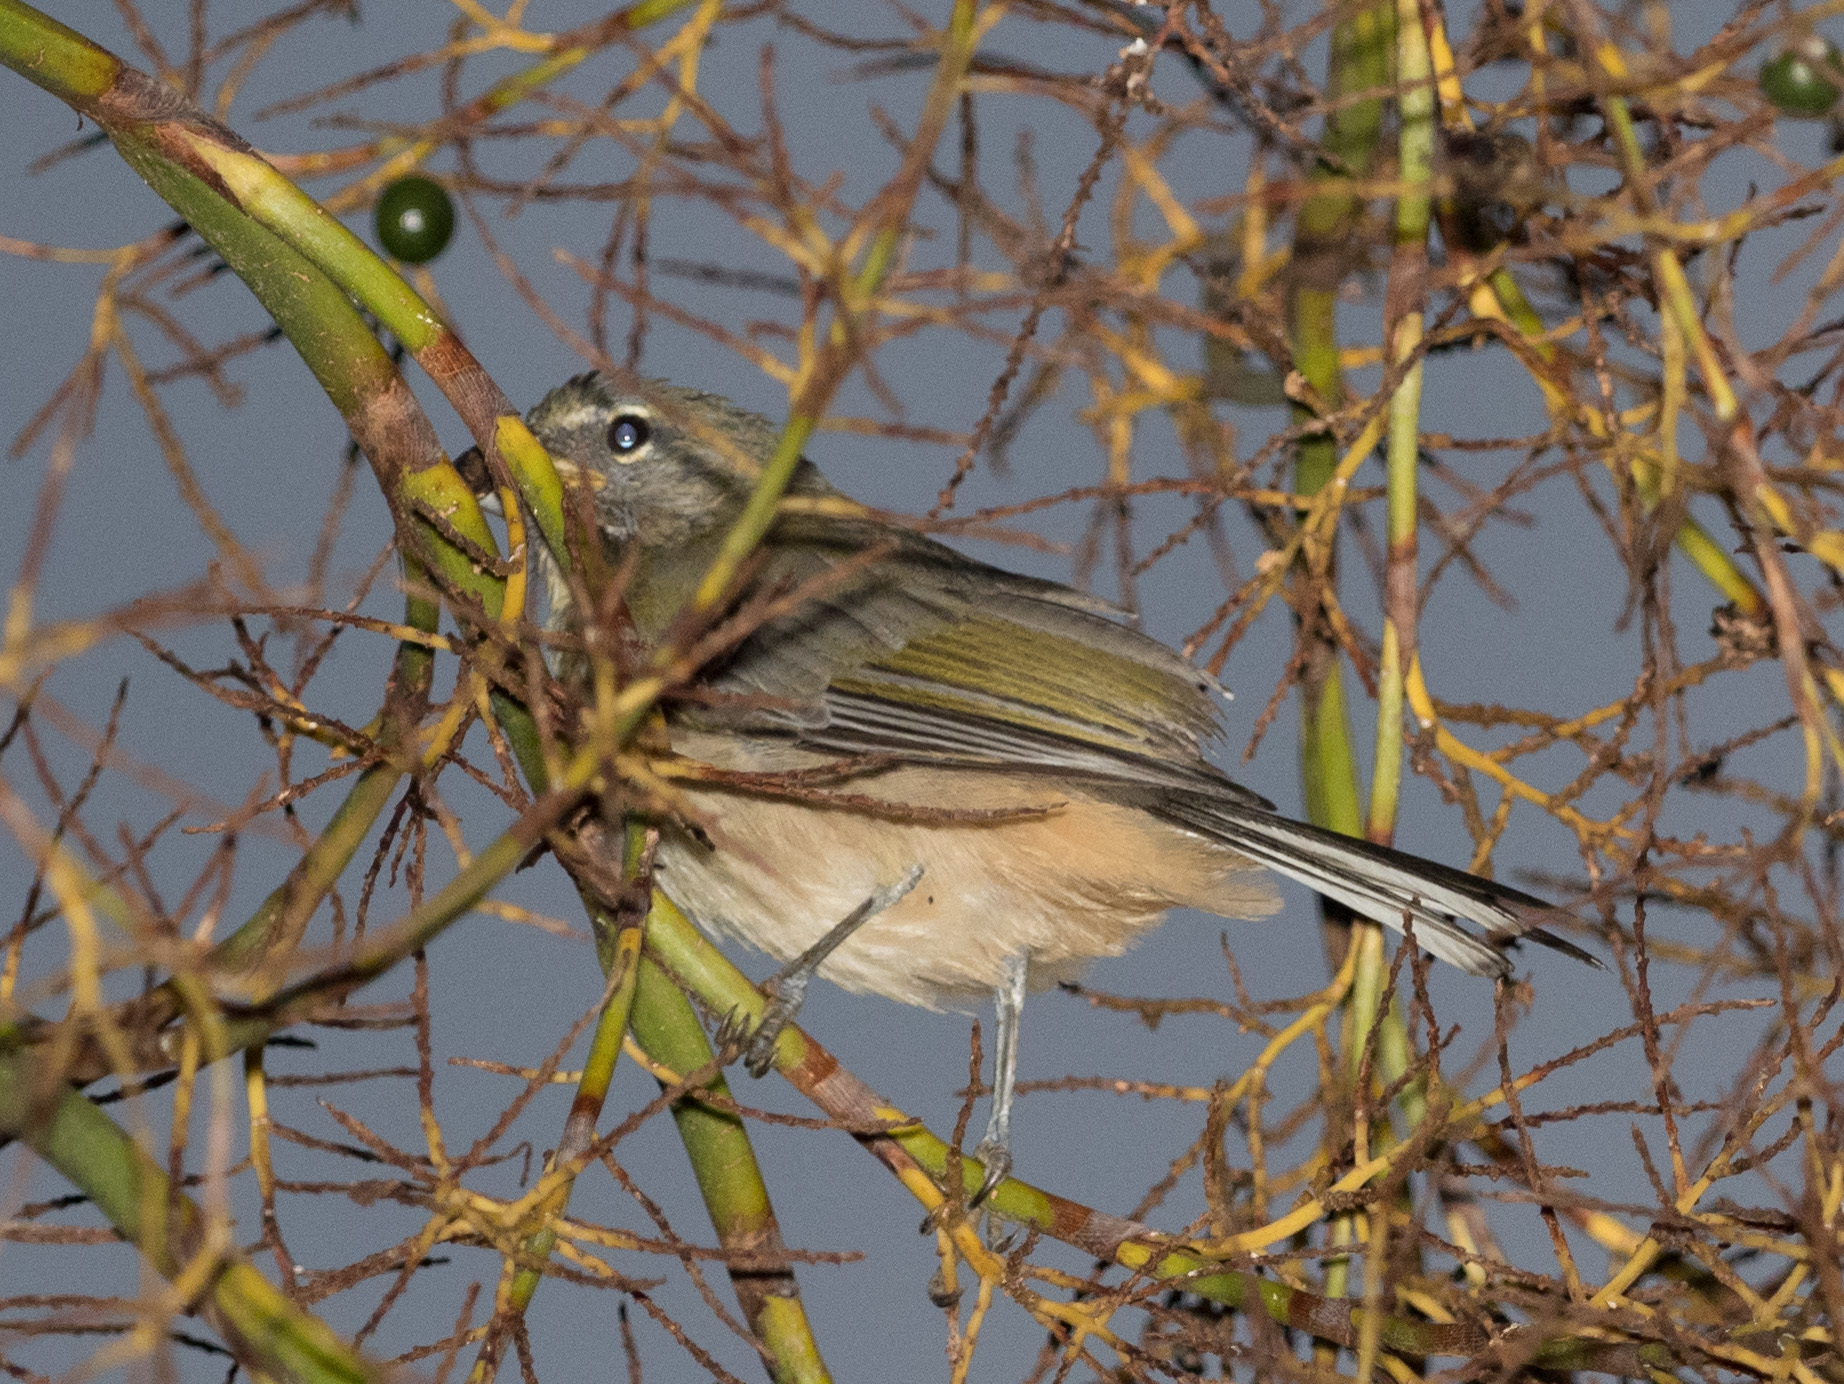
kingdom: Animalia
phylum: Chordata
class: Aves
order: Passeriformes
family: Thraupidae
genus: Saltator
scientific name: Saltator olivascens
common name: Caribbean grey saltator
